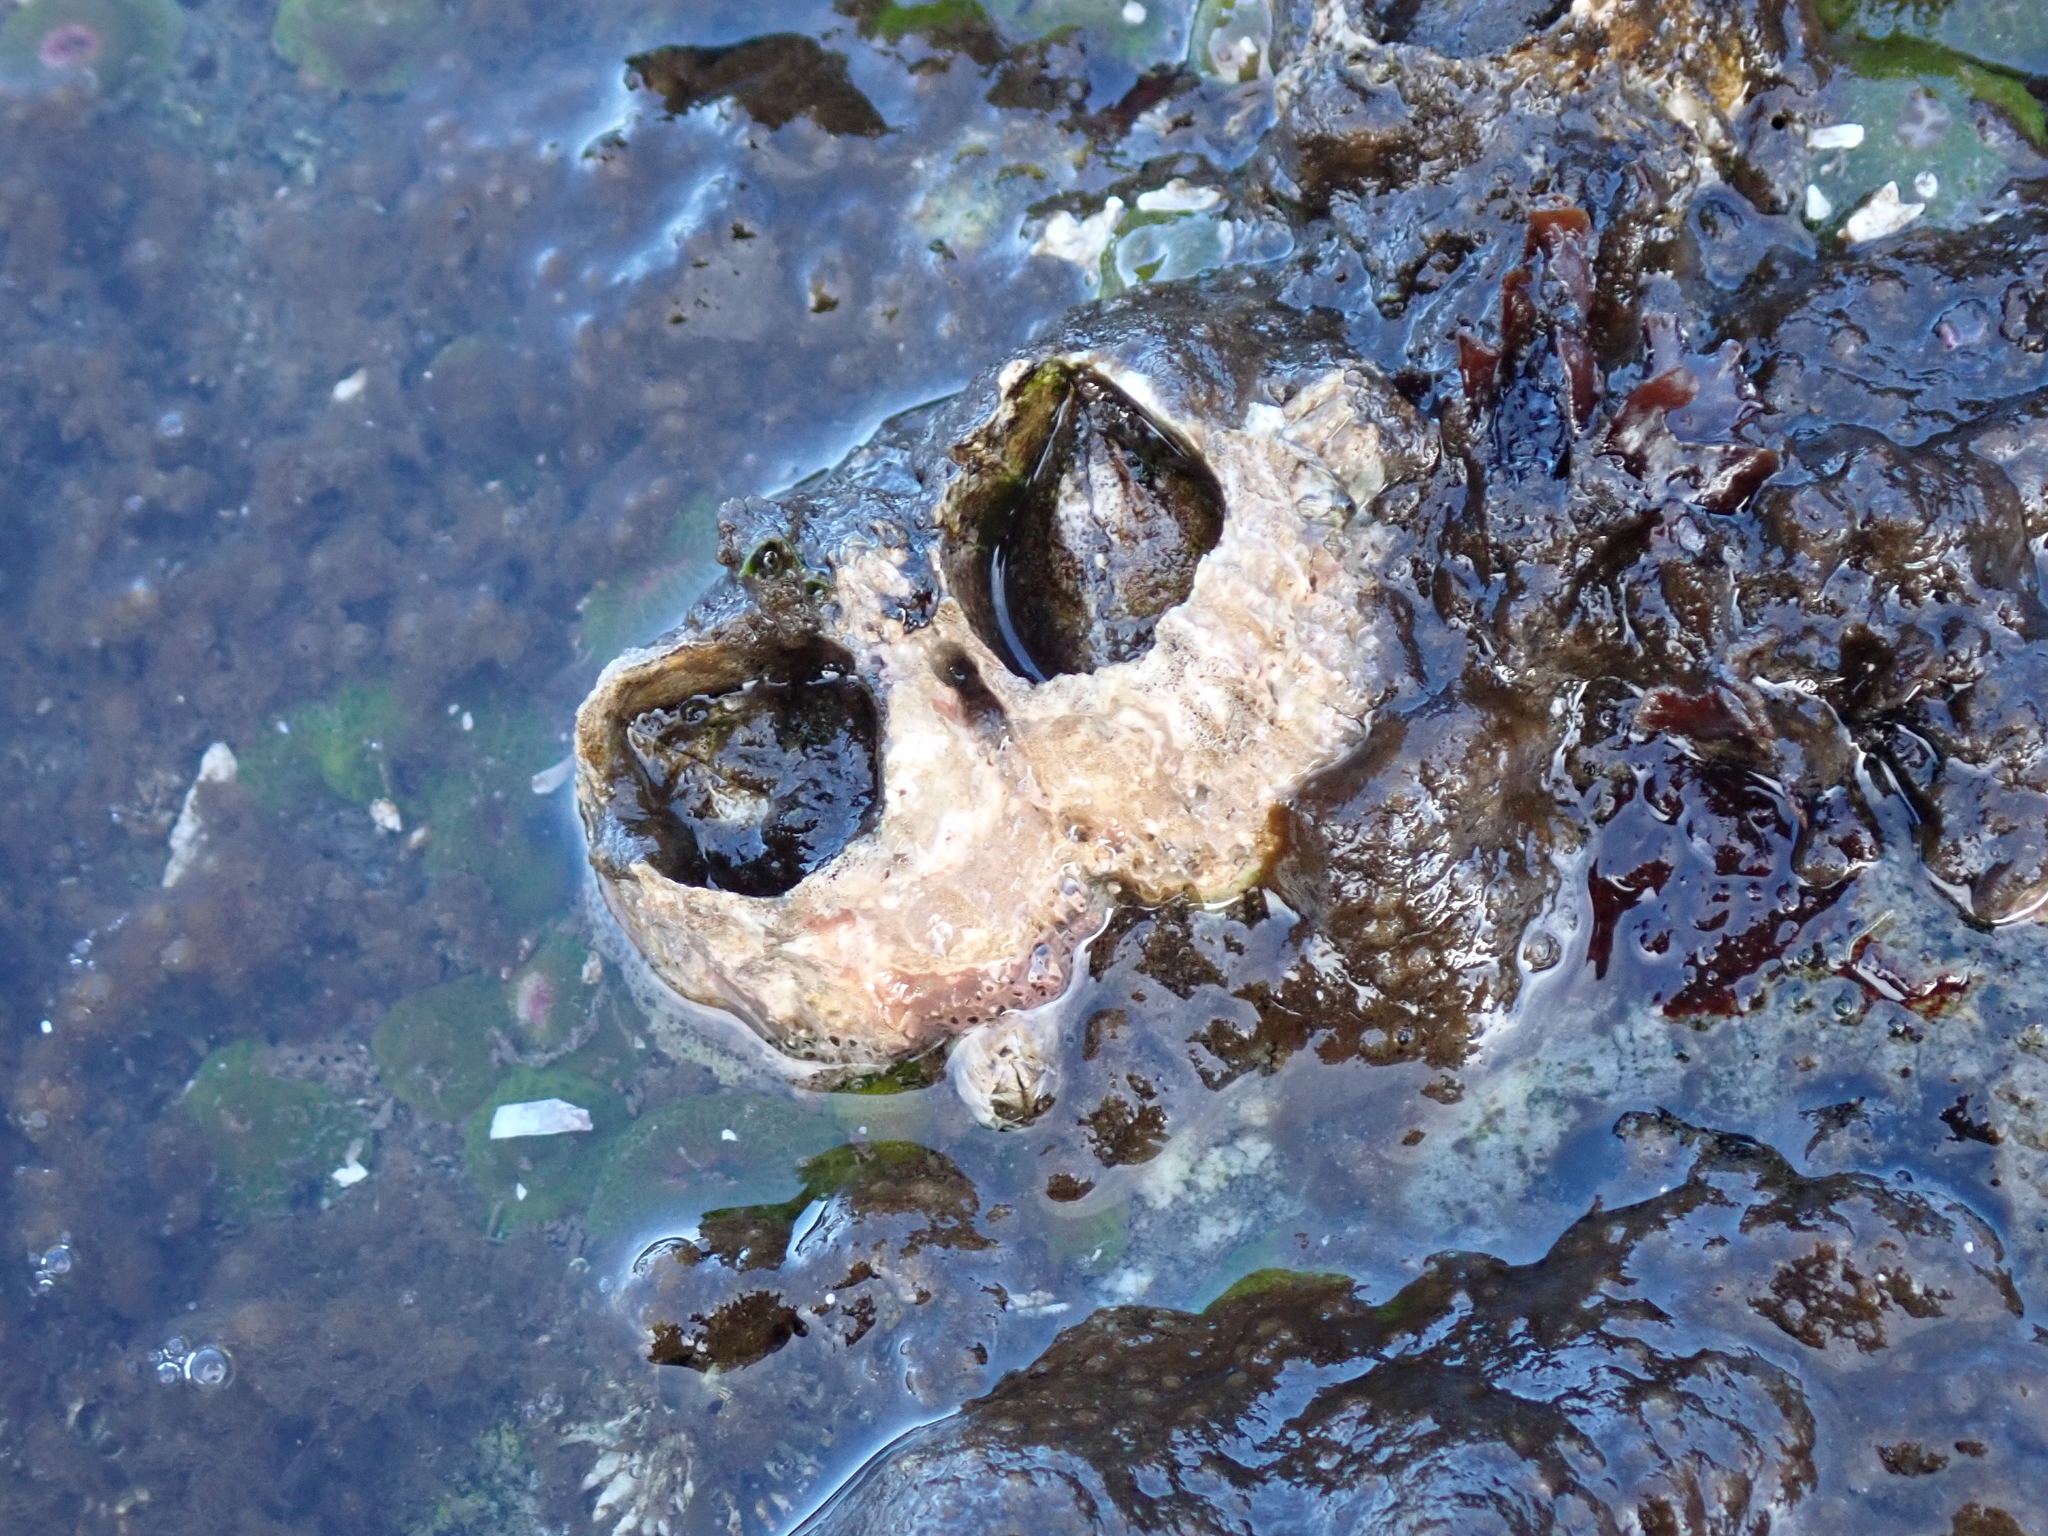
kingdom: Animalia
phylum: Arthropoda
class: Maxillopoda
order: Sessilia
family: Archaeobalanidae
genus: Semibalanus
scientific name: Semibalanus cariosus
